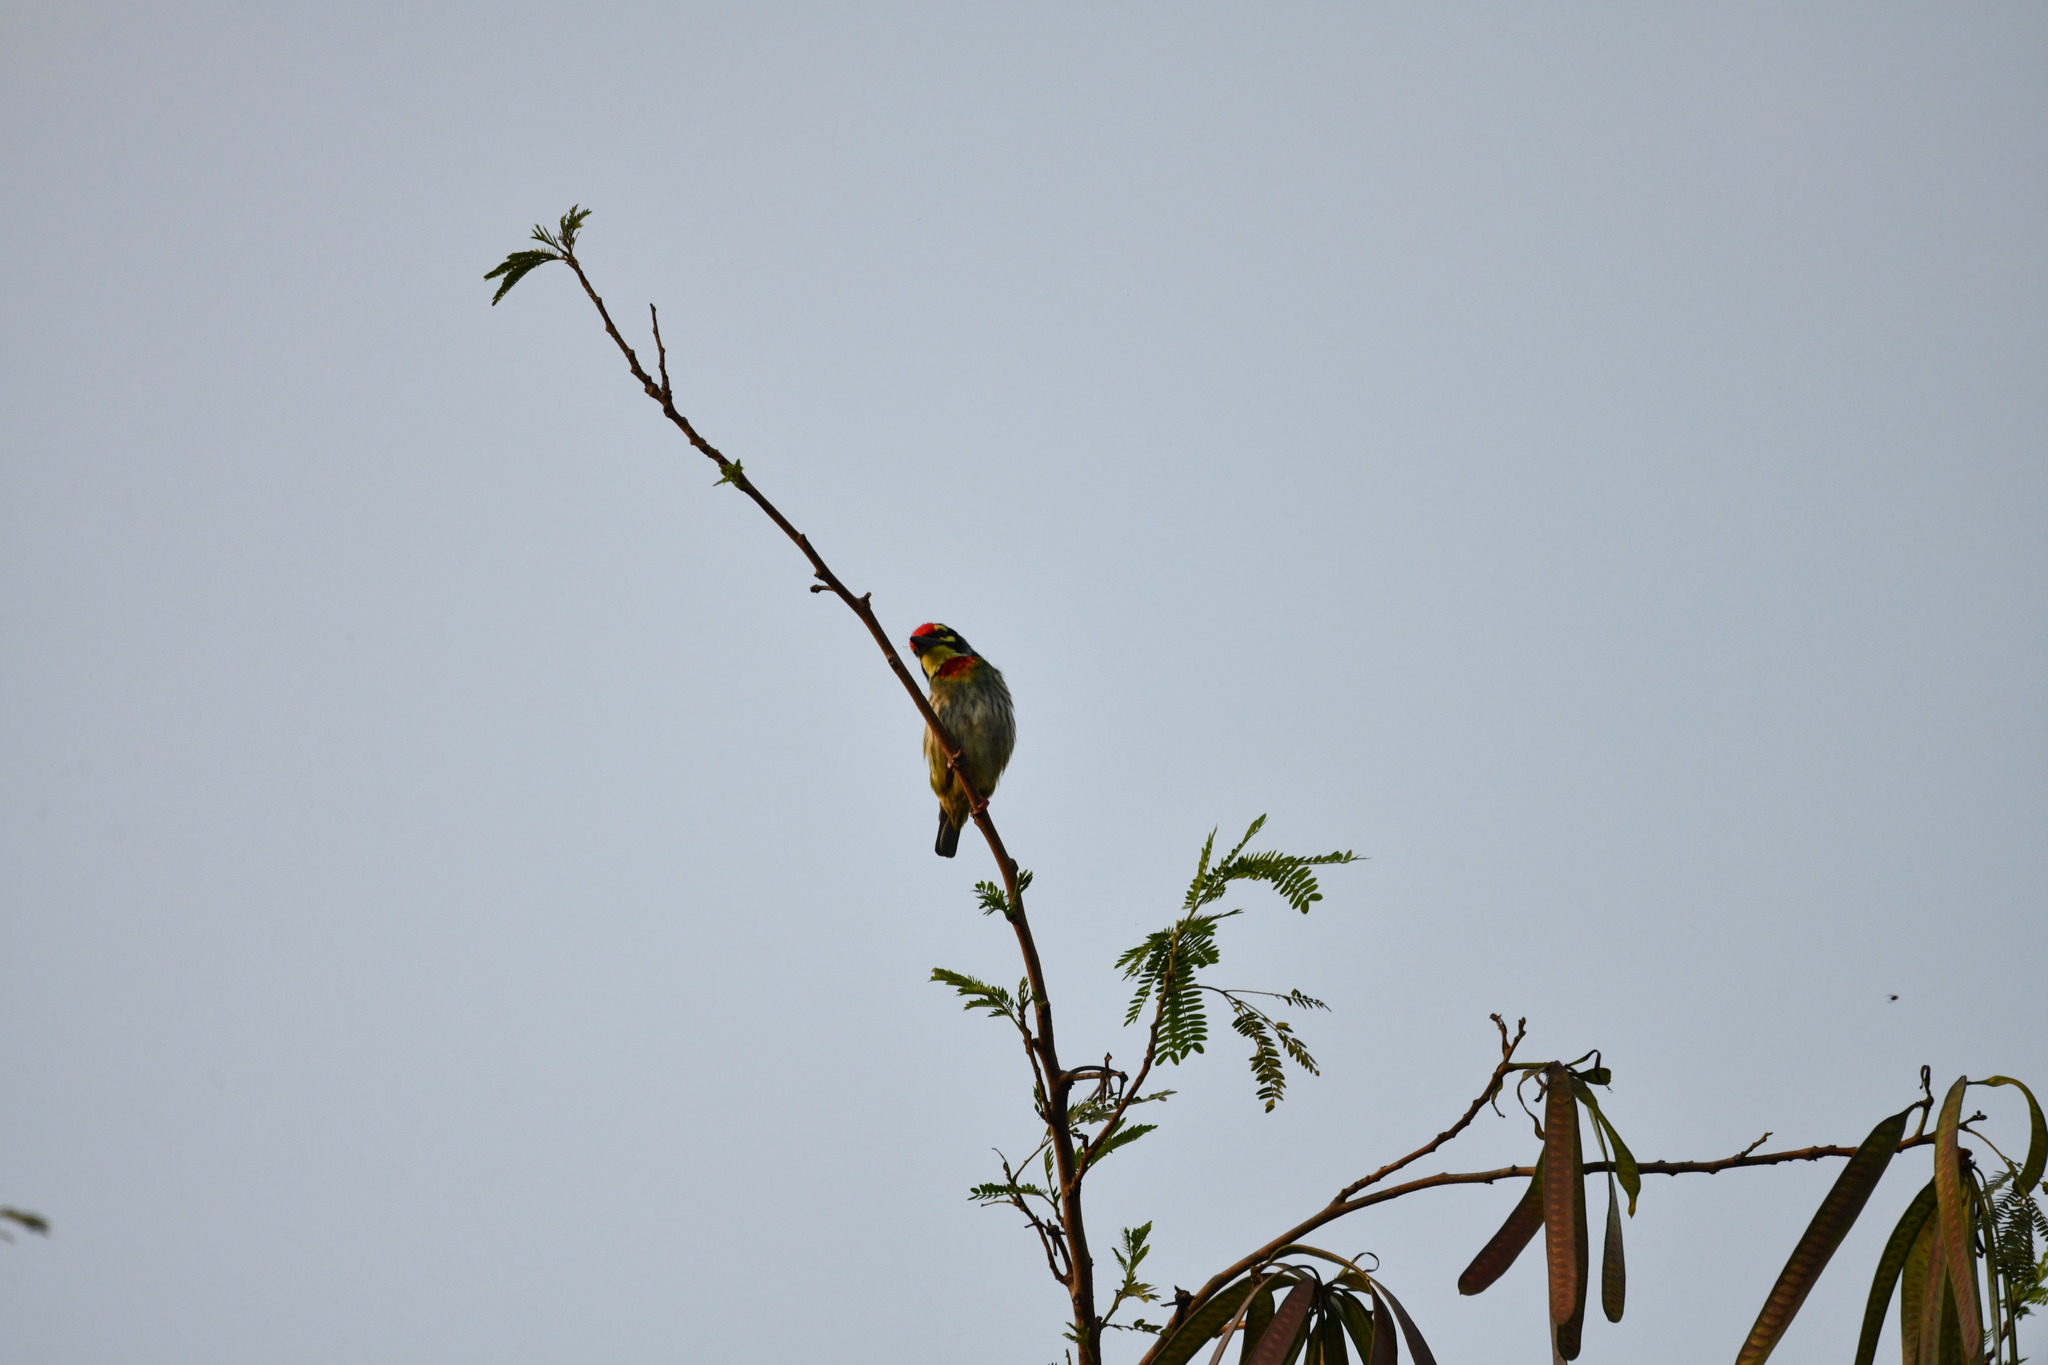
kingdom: Animalia
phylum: Chordata
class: Aves
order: Piciformes
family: Megalaimidae
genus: Psilopogon
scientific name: Psilopogon haemacephalus
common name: Coppersmith barbet
